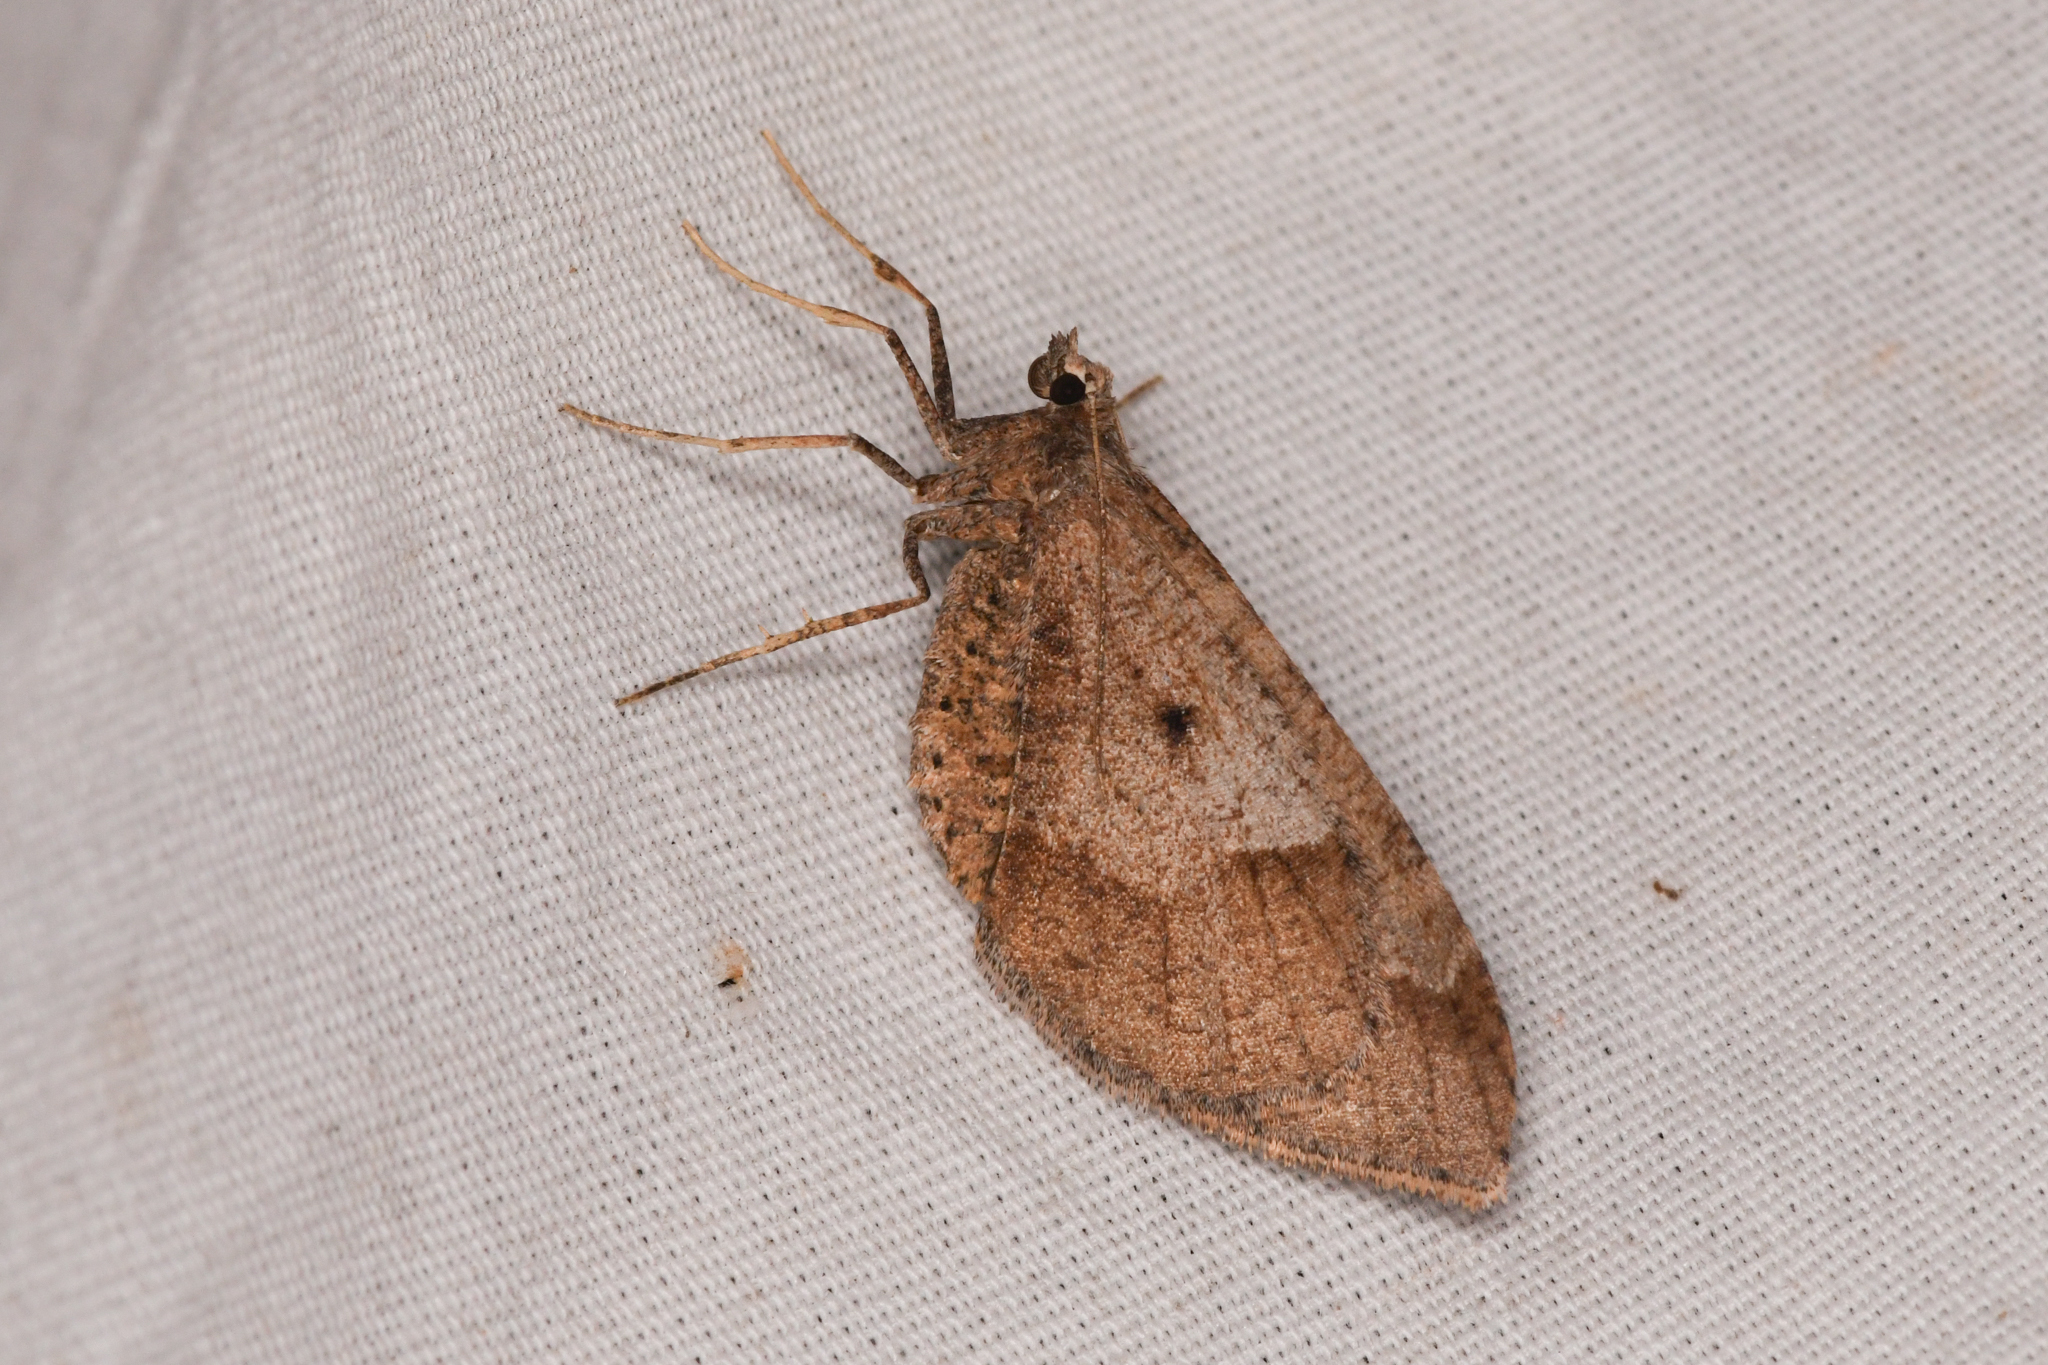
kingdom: Animalia
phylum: Arthropoda
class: Insecta
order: Lepidoptera
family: Geometridae
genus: Stamnodes
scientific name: Stamnodes affiliata
